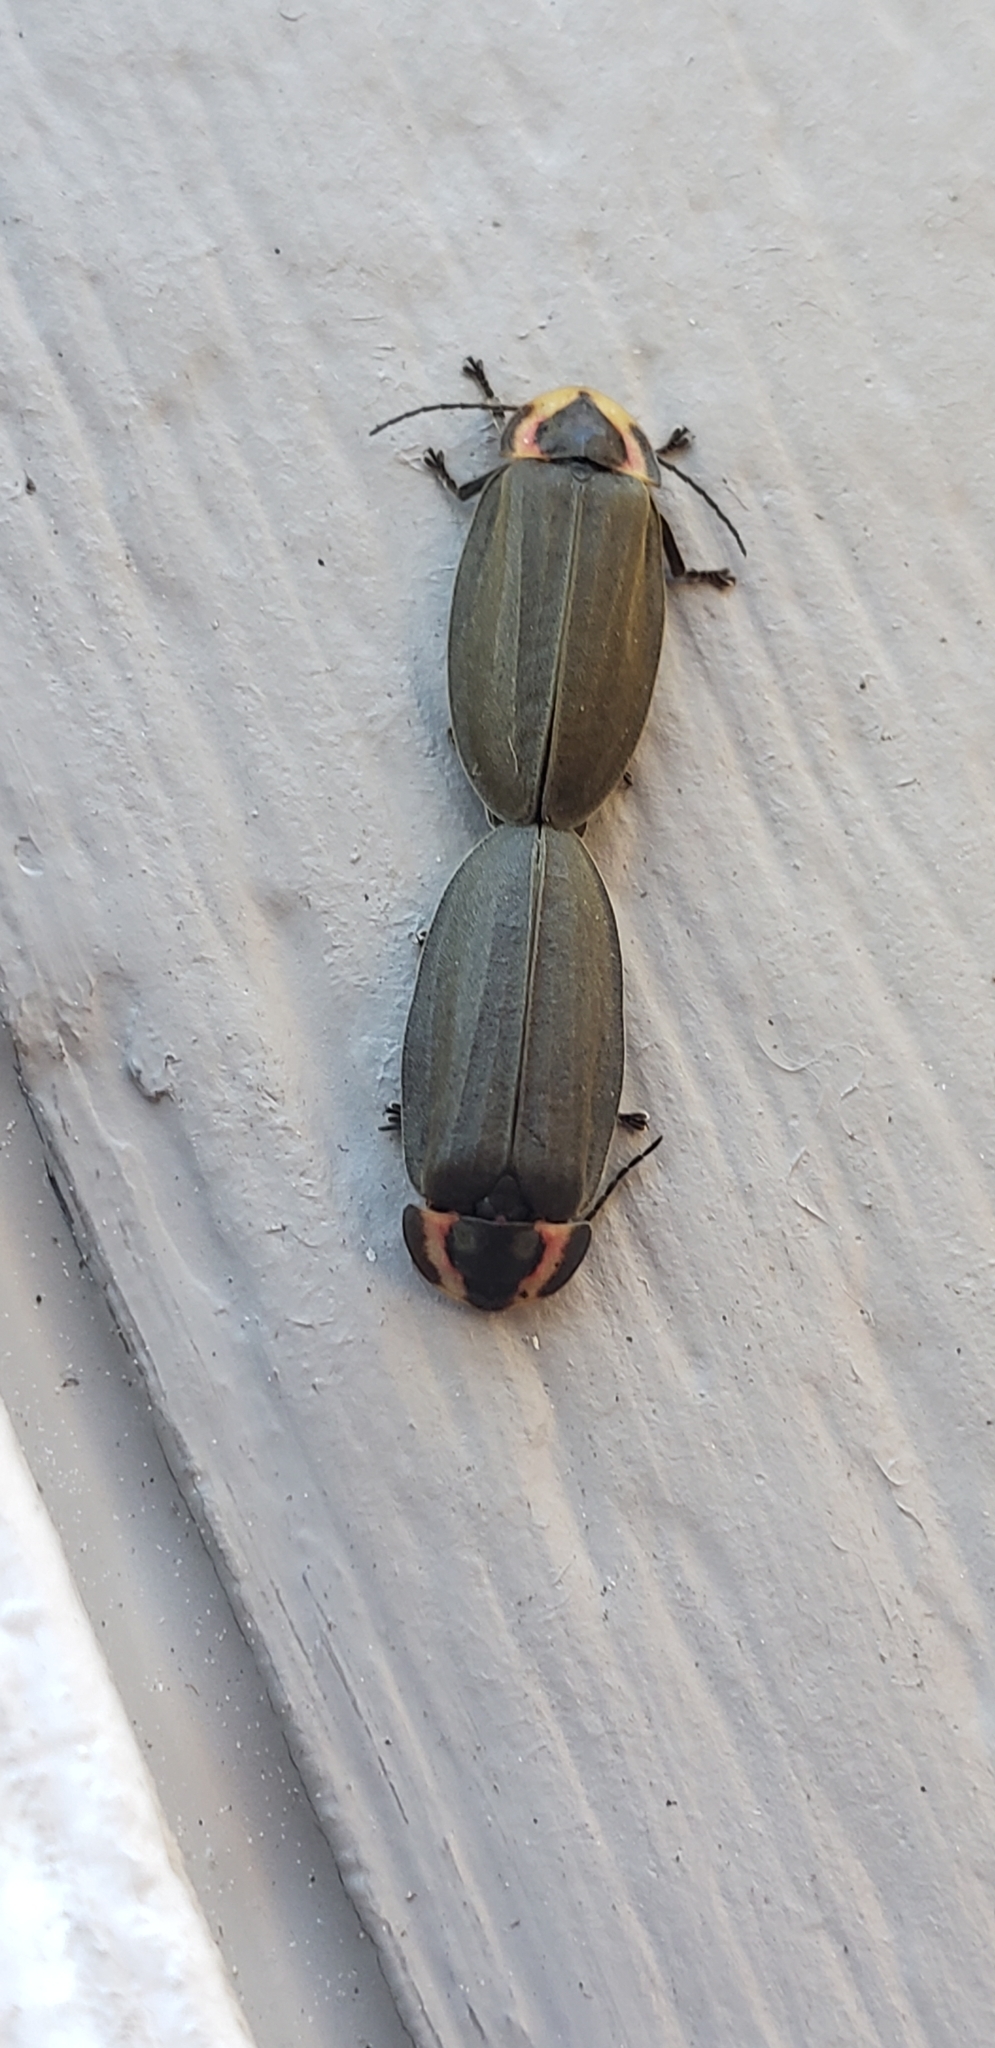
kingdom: Animalia
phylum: Arthropoda
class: Insecta
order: Coleoptera
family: Lampyridae
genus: Photinus
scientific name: Photinus corrusca
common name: Winter firefly
